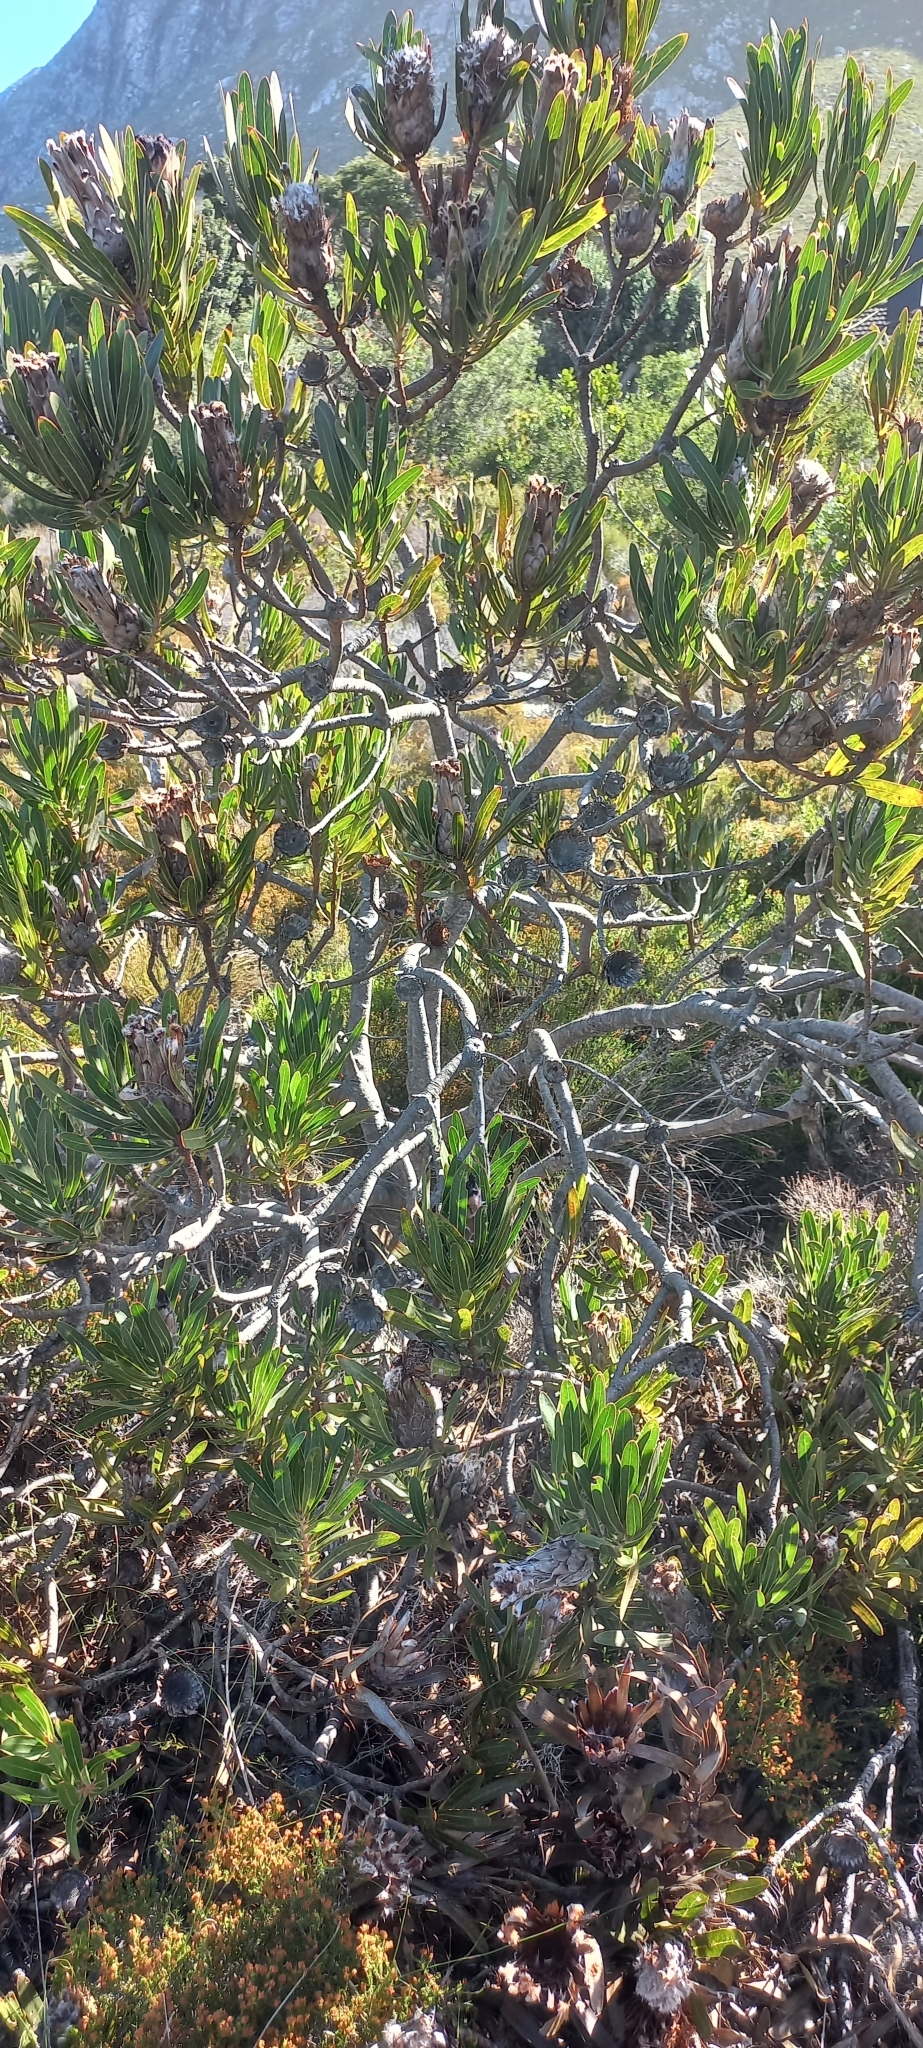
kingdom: Plantae
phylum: Tracheophyta
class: Magnoliopsida
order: Proteales
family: Proteaceae
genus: Protea
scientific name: Protea lepidocarpodendron
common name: Black-bearded protea
